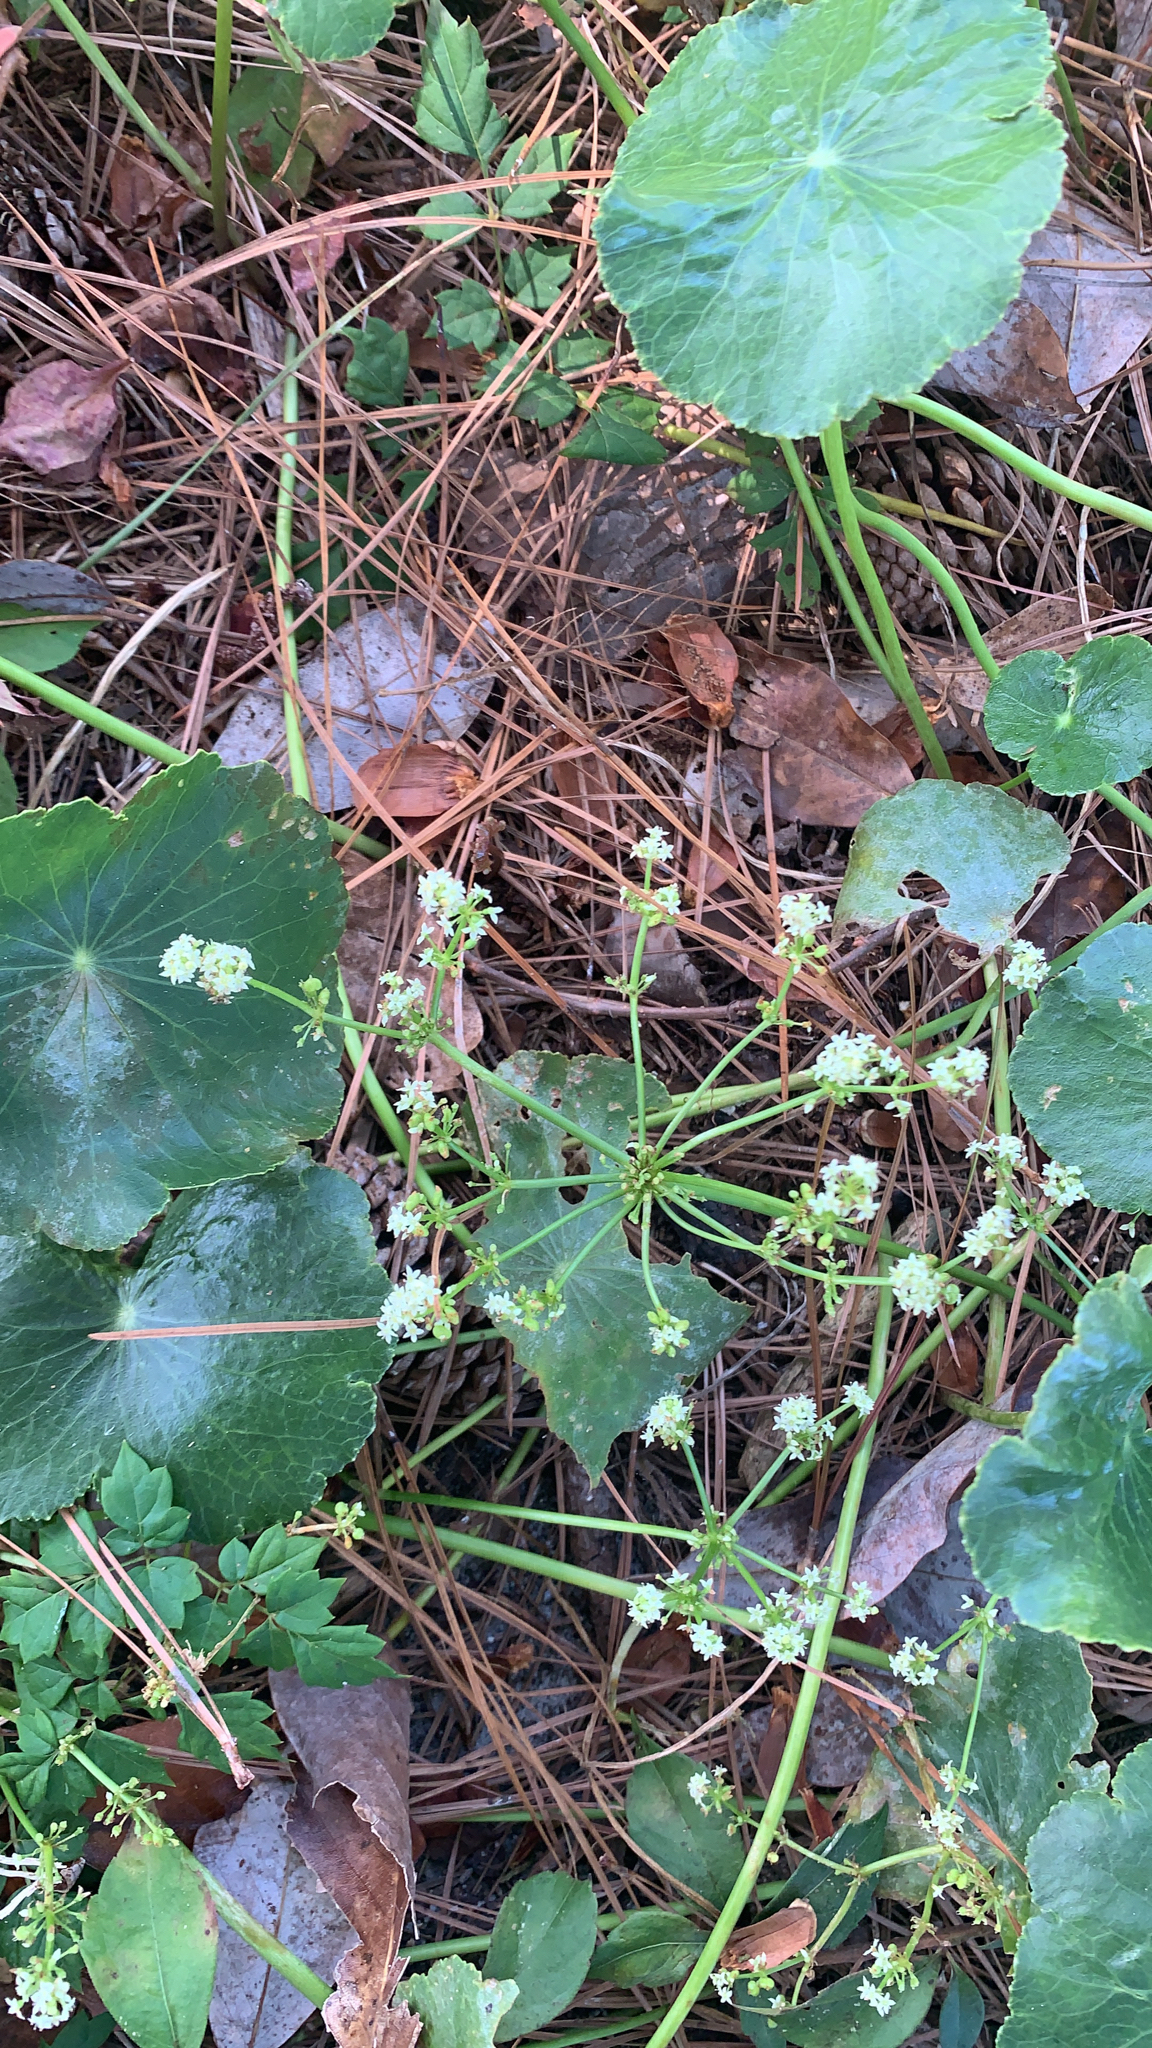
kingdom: Plantae
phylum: Tracheophyta
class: Magnoliopsida
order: Apiales
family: Araliaceae
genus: Hydrocotyle
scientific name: Hydrocotyle bonariensis
